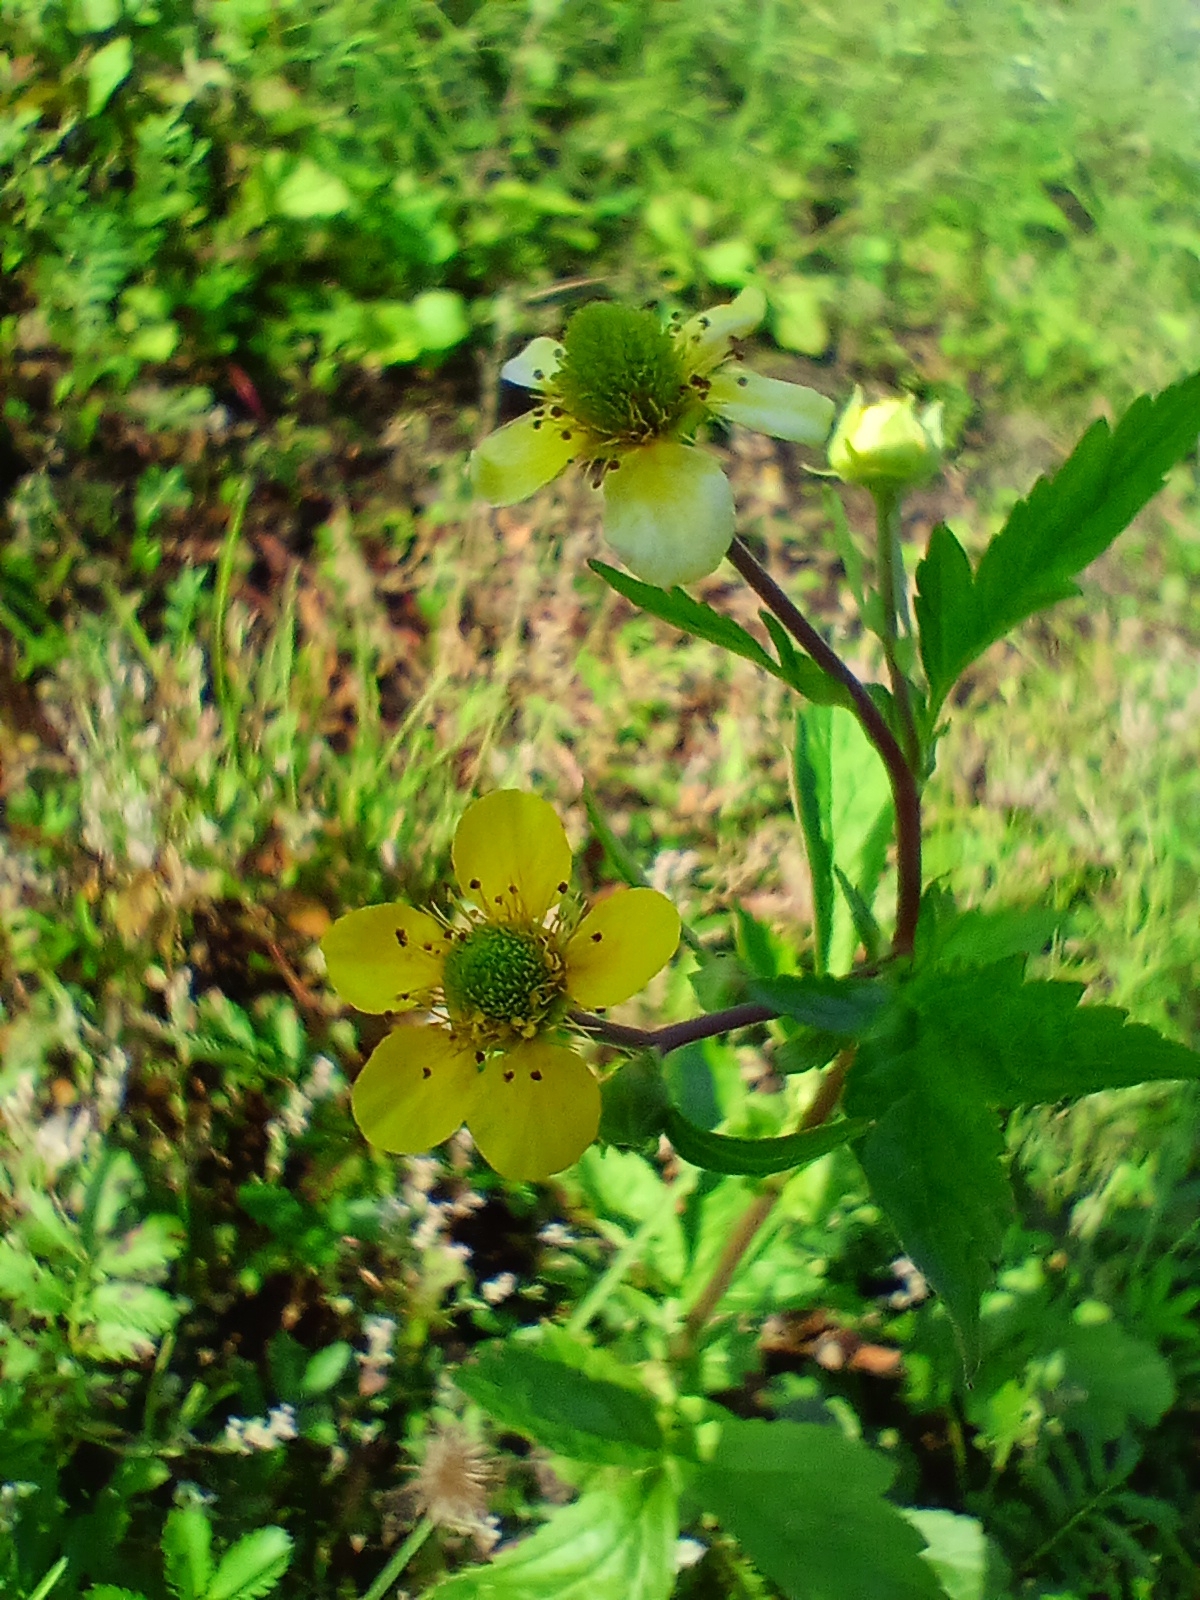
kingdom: Plantae
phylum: Tracheophyta
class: Magnoliopsida
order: Rosales
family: Rosaceae
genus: Geum
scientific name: Geum aleppicum
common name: Yellow avens
